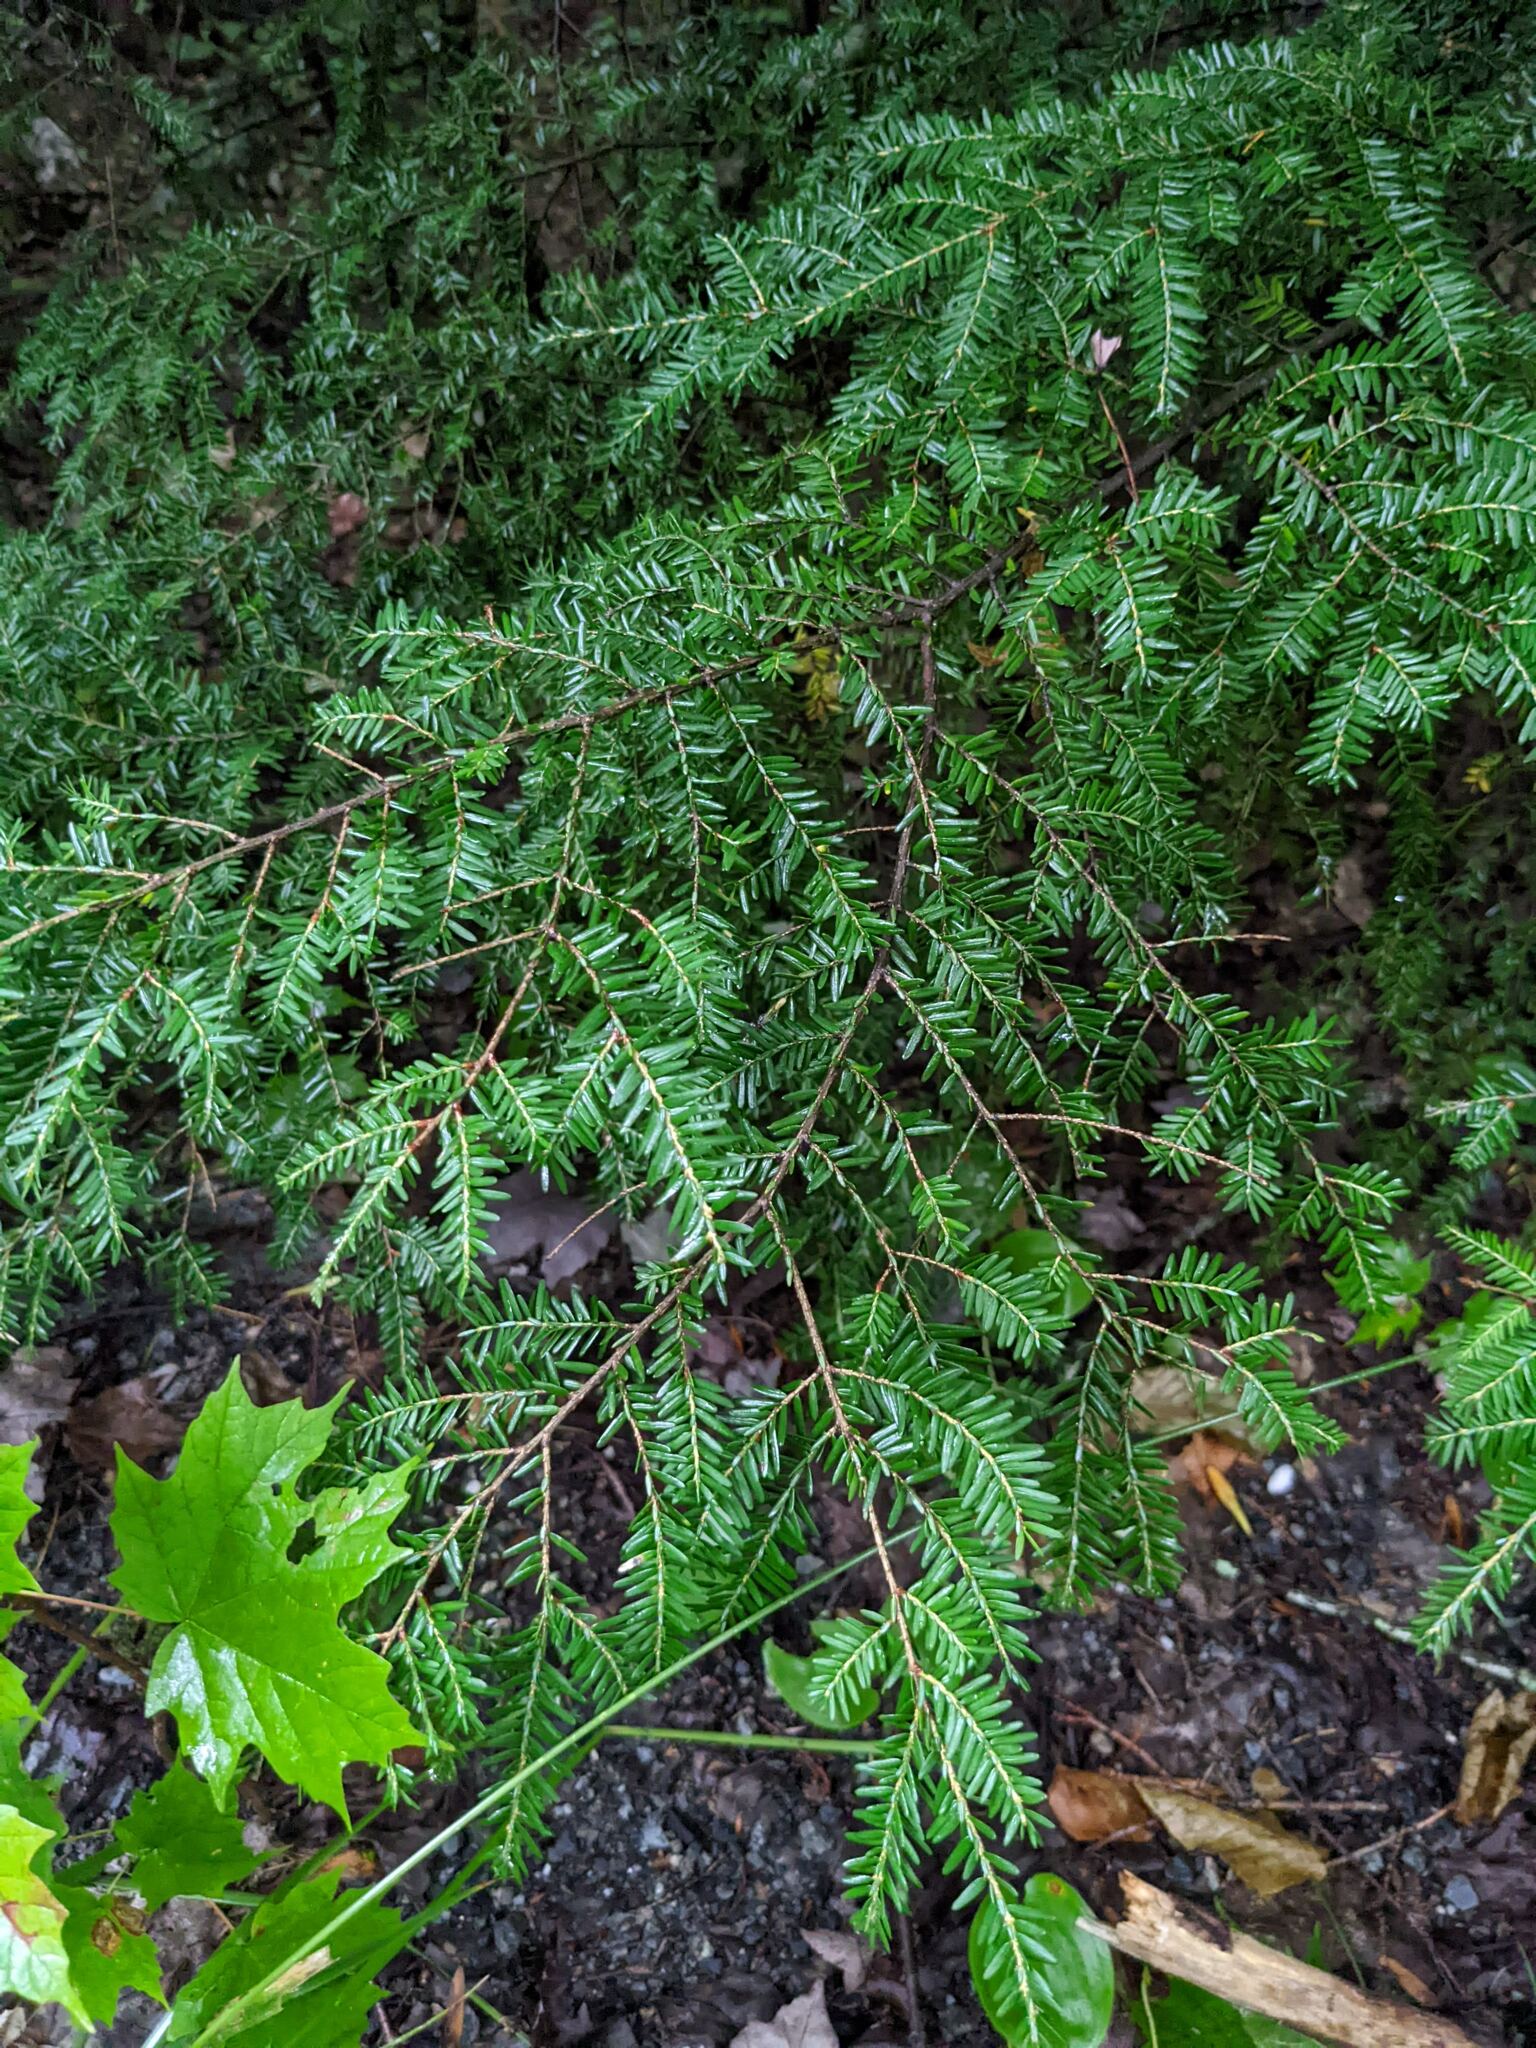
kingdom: Plantae
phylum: Tracheophyta
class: Pinopsida
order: Pinales
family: Pinaceae
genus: Tsuga
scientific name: Tsuga canadensis
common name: Eastern hemlock
